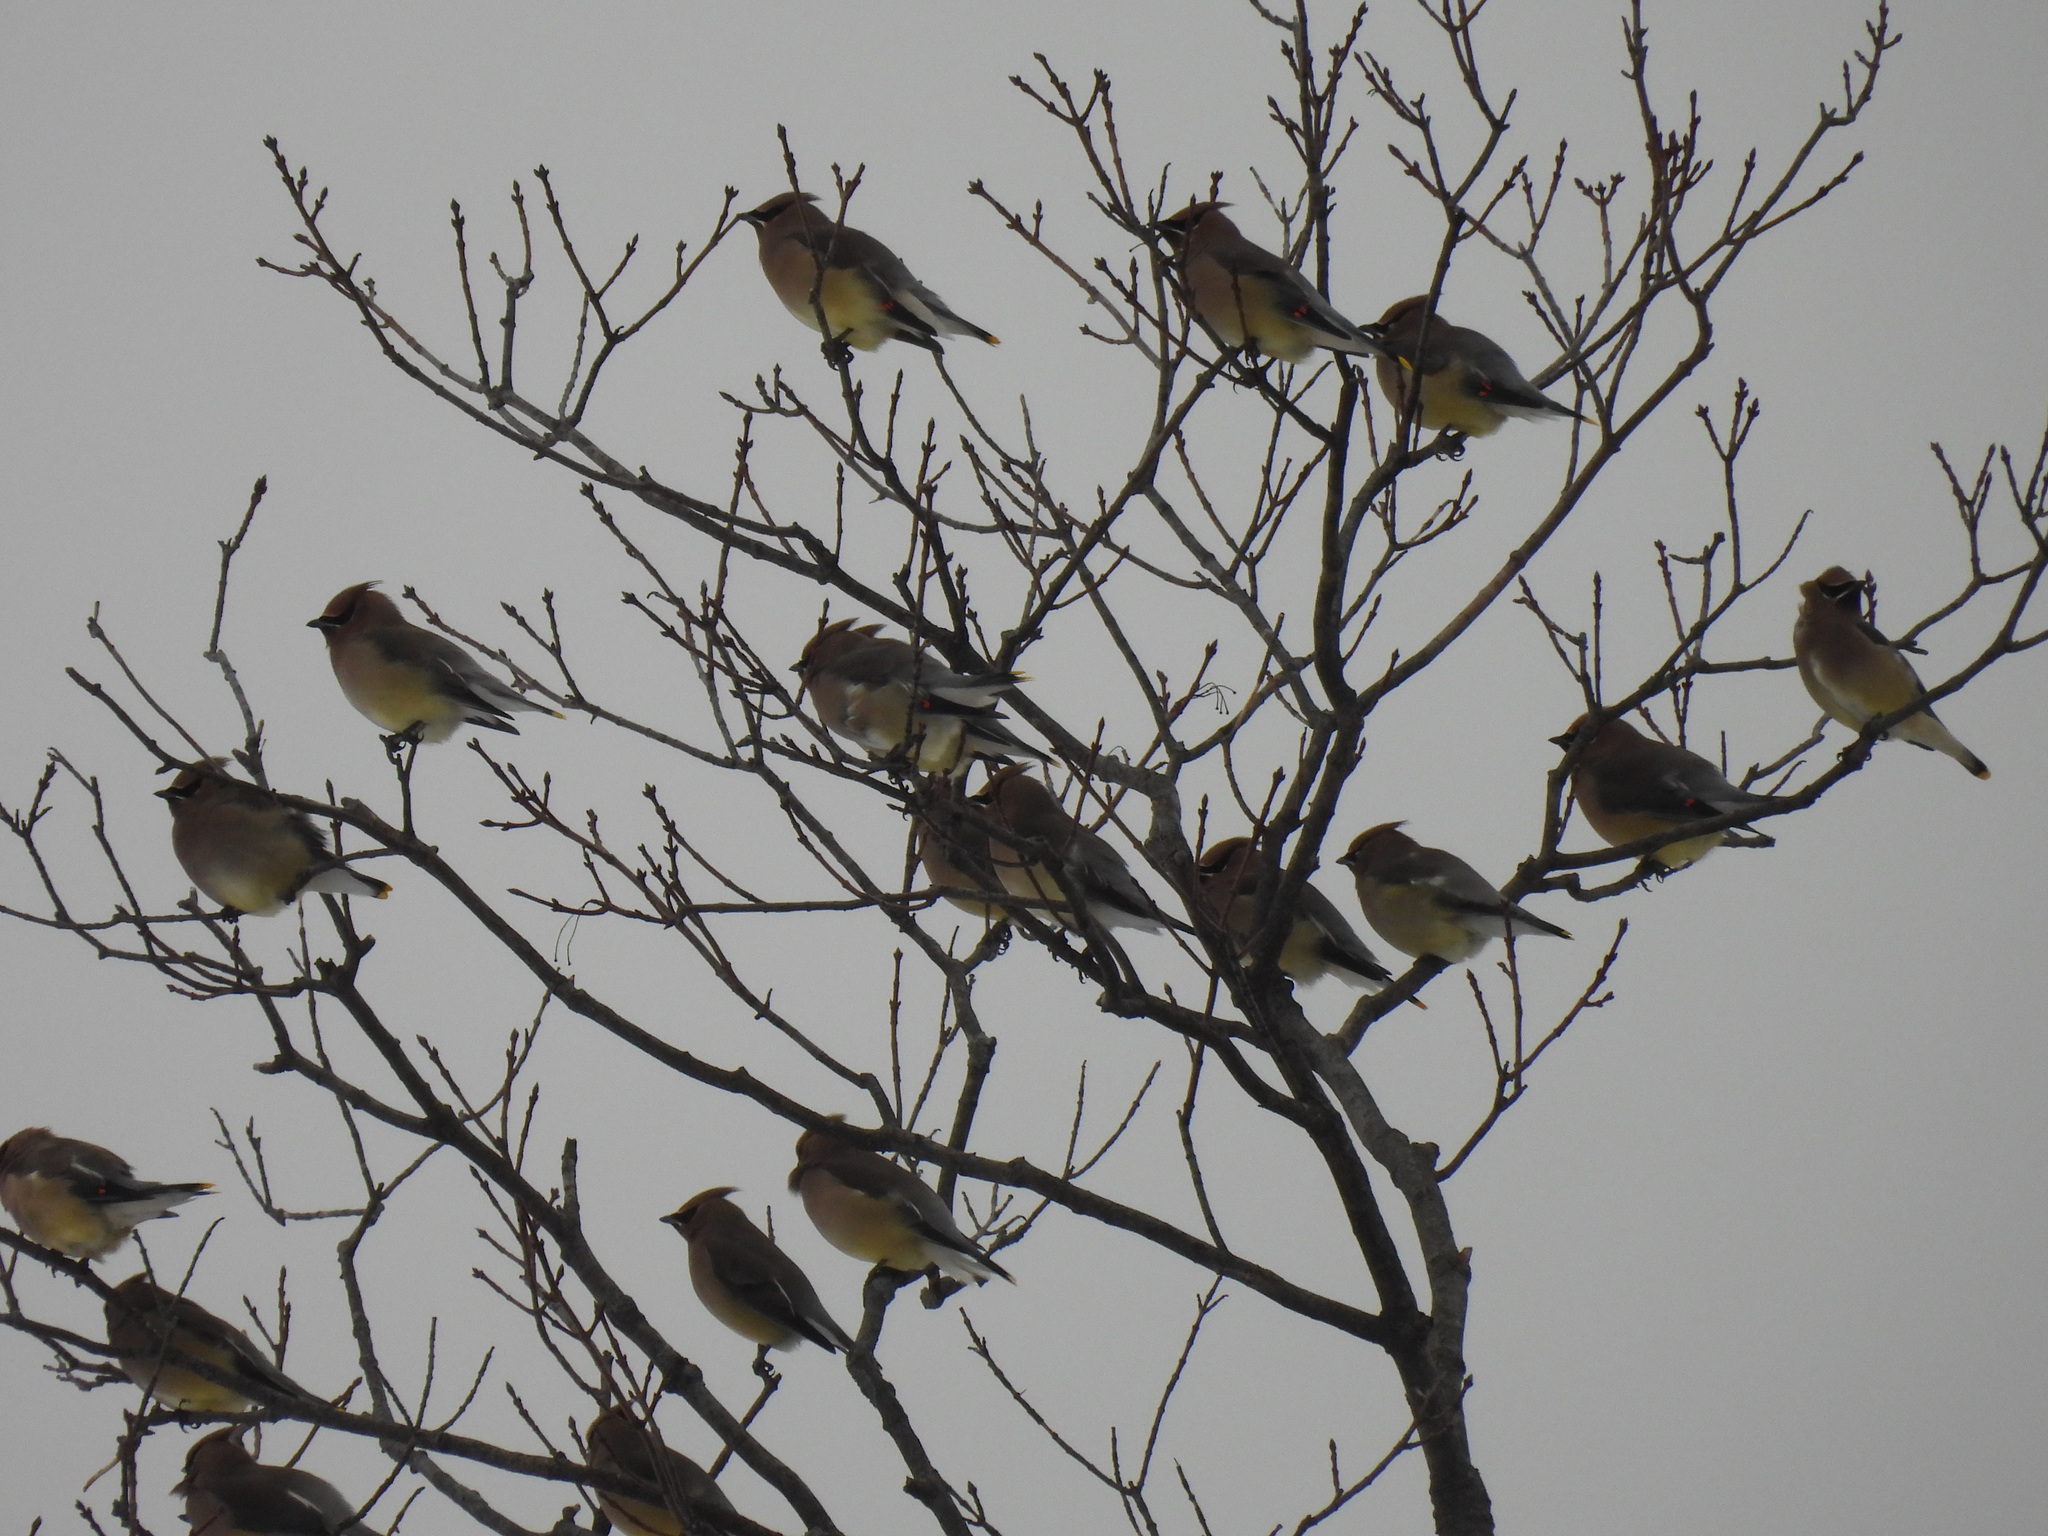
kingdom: Animalia
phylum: Chordata
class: Aves
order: Passeriformes
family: Bombycillidae
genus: Bombycilla
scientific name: Bombycilla cedrorum
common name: Cedar waxwing
